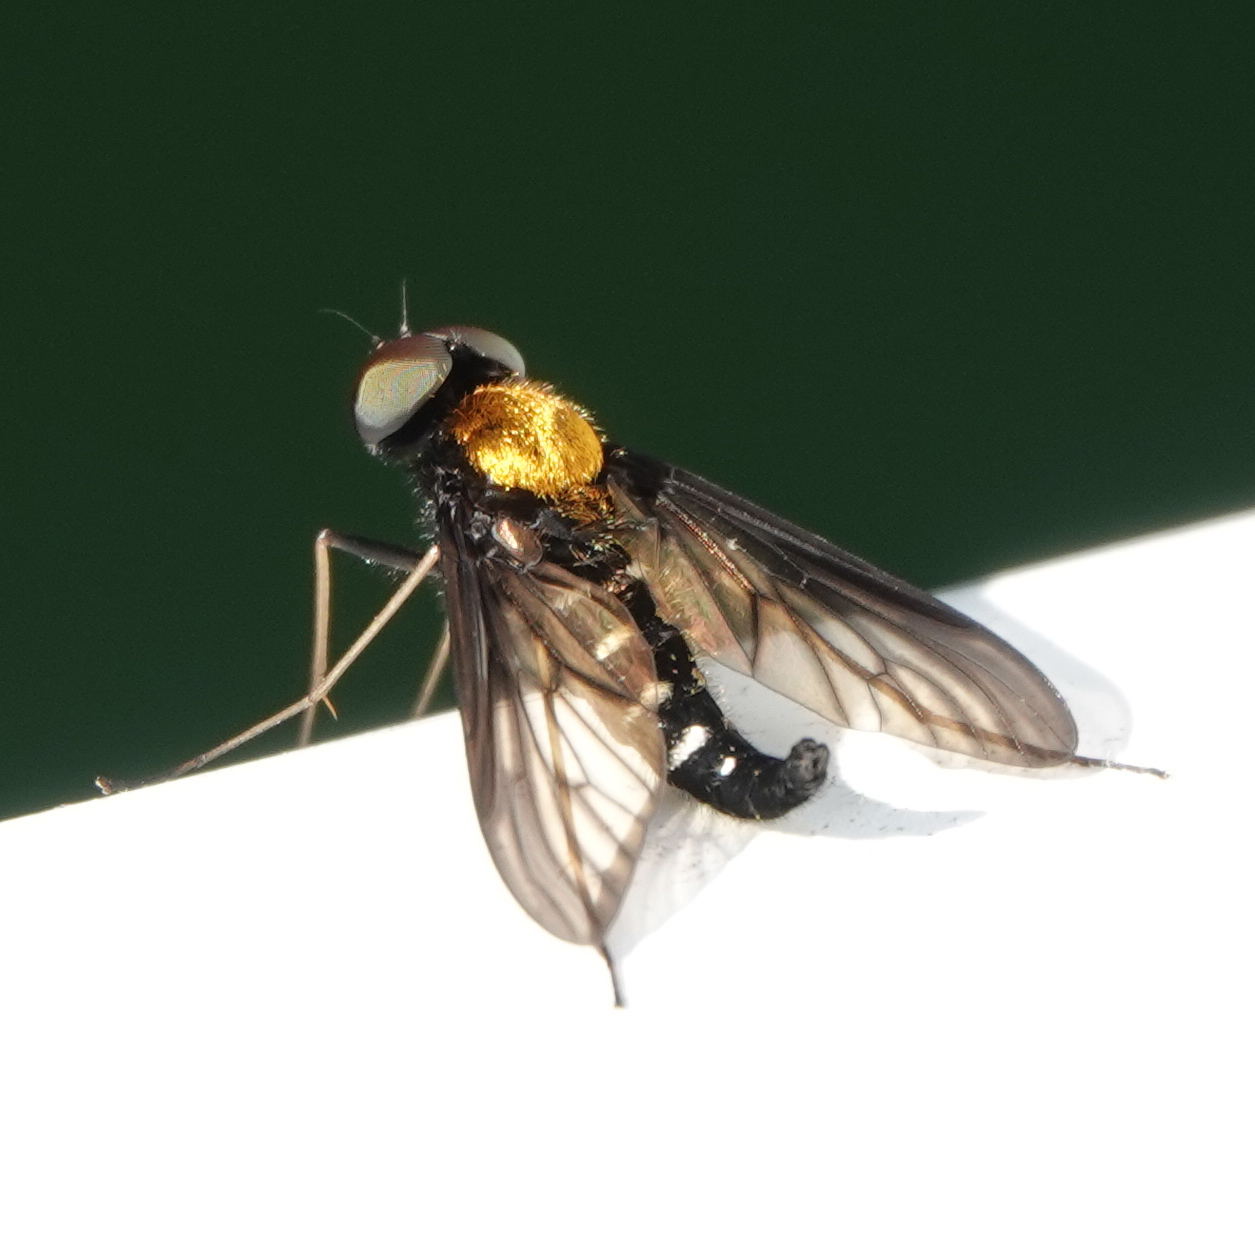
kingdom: Animalia
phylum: Arthropoda
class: Insecta
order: Diptera
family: Rhagionidae
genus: Chrysopilus
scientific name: Chrysopilus thoracicus
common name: Golden-backed snipe fly
